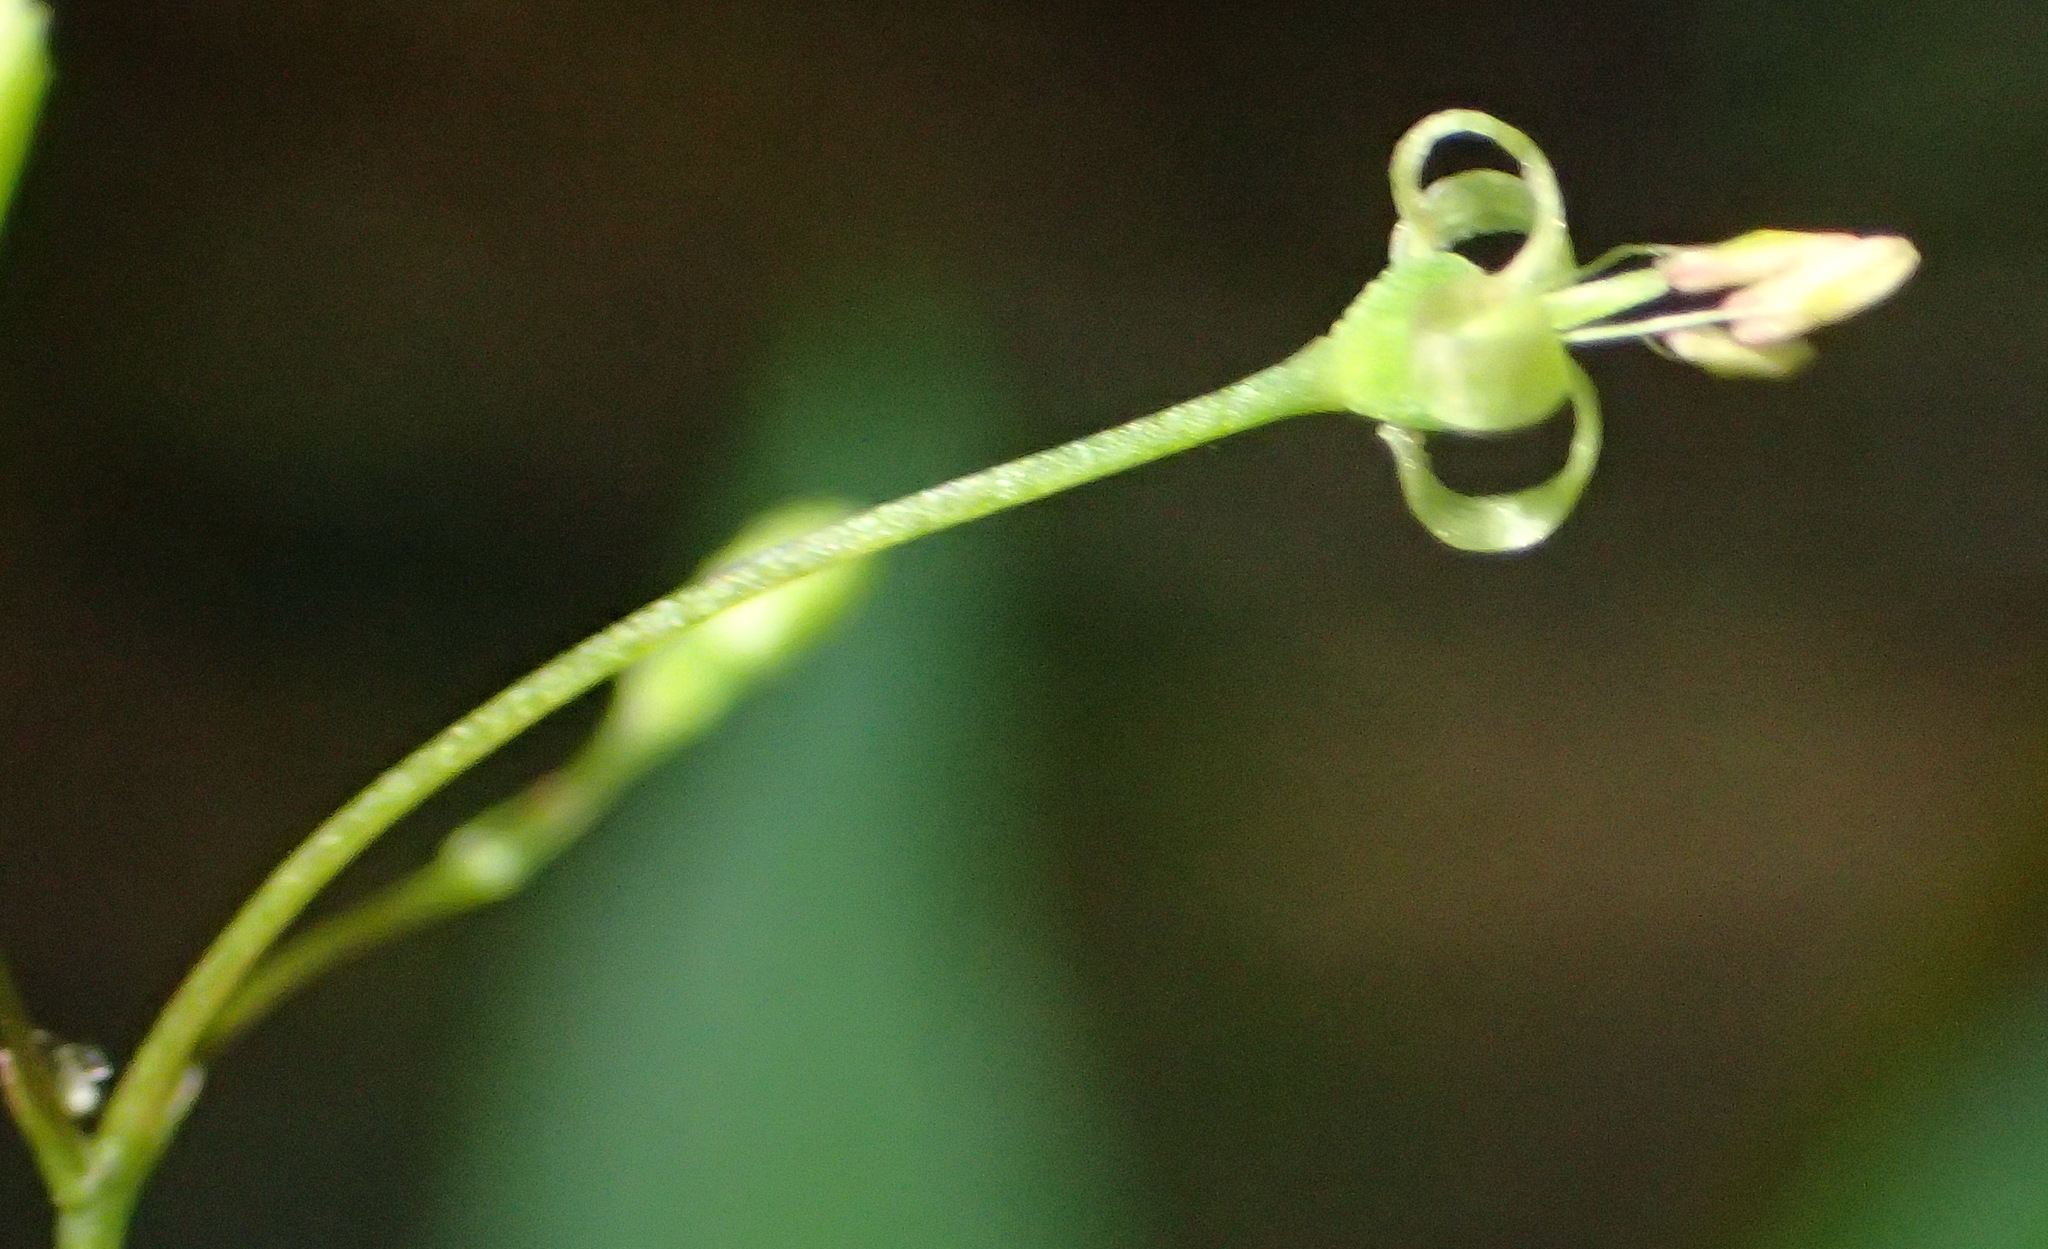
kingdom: Plantae
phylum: Tracheophyta
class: Magnoliopsida
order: Gentianales
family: Rubiaceae
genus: Galopina
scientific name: Galopina circaeoides
